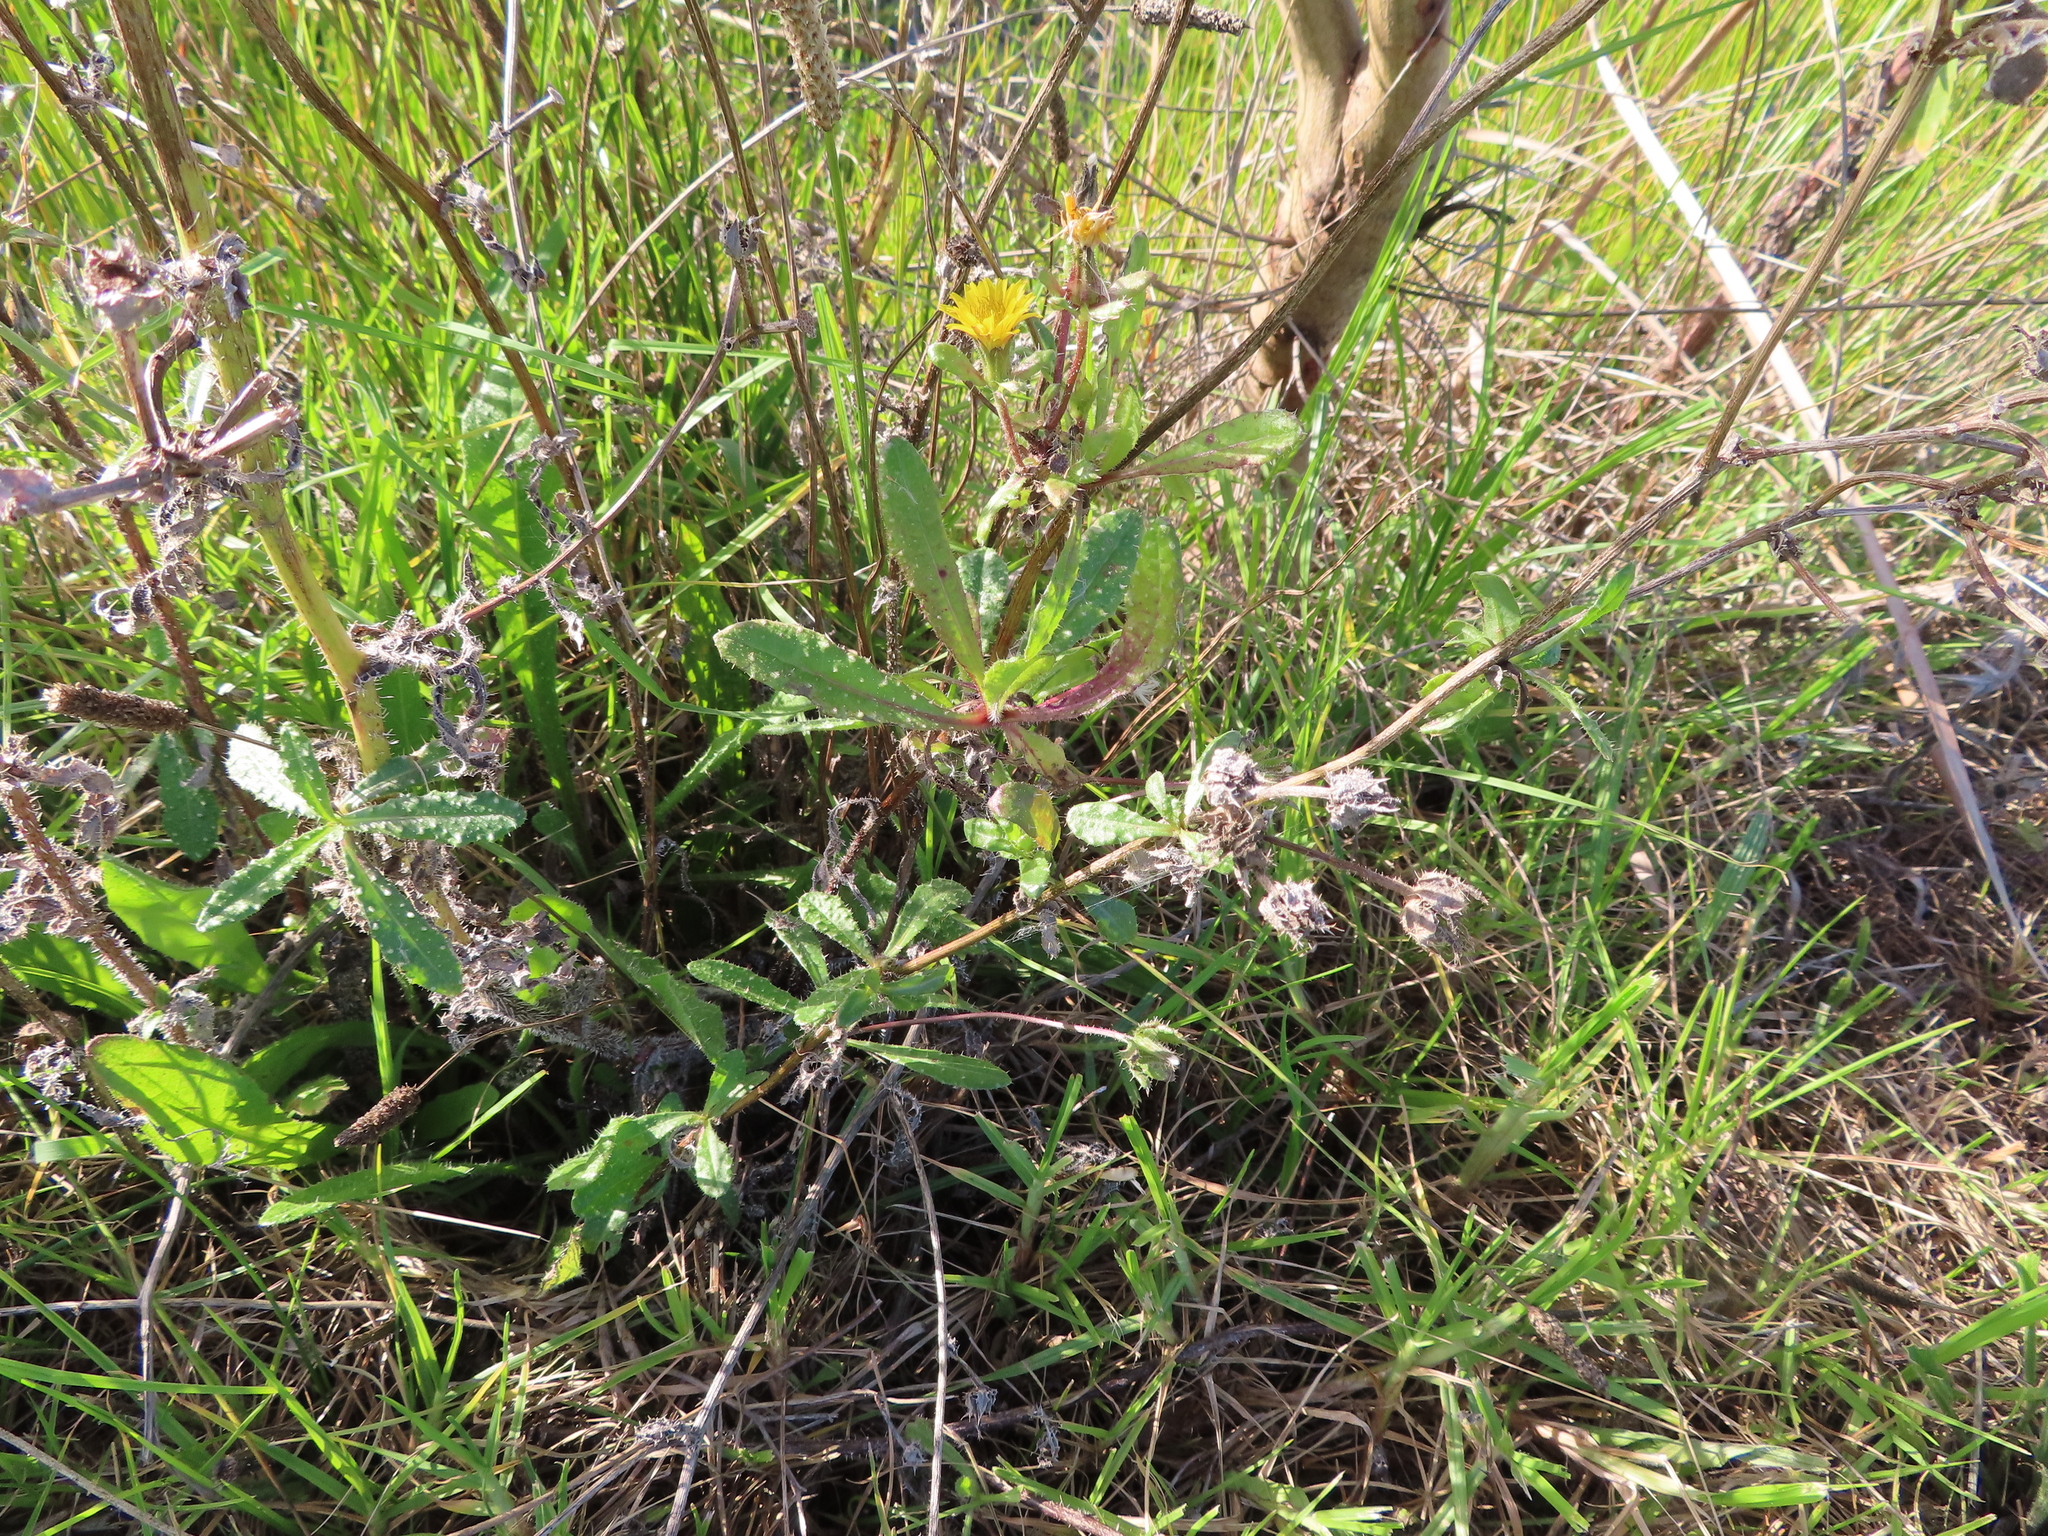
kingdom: Plantae
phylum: Tracheophyta
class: Magnoliopsida
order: Asterales
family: Asteraceae
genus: Helminthotheca
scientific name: Helminthotheca echioides
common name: Ox-tongue
